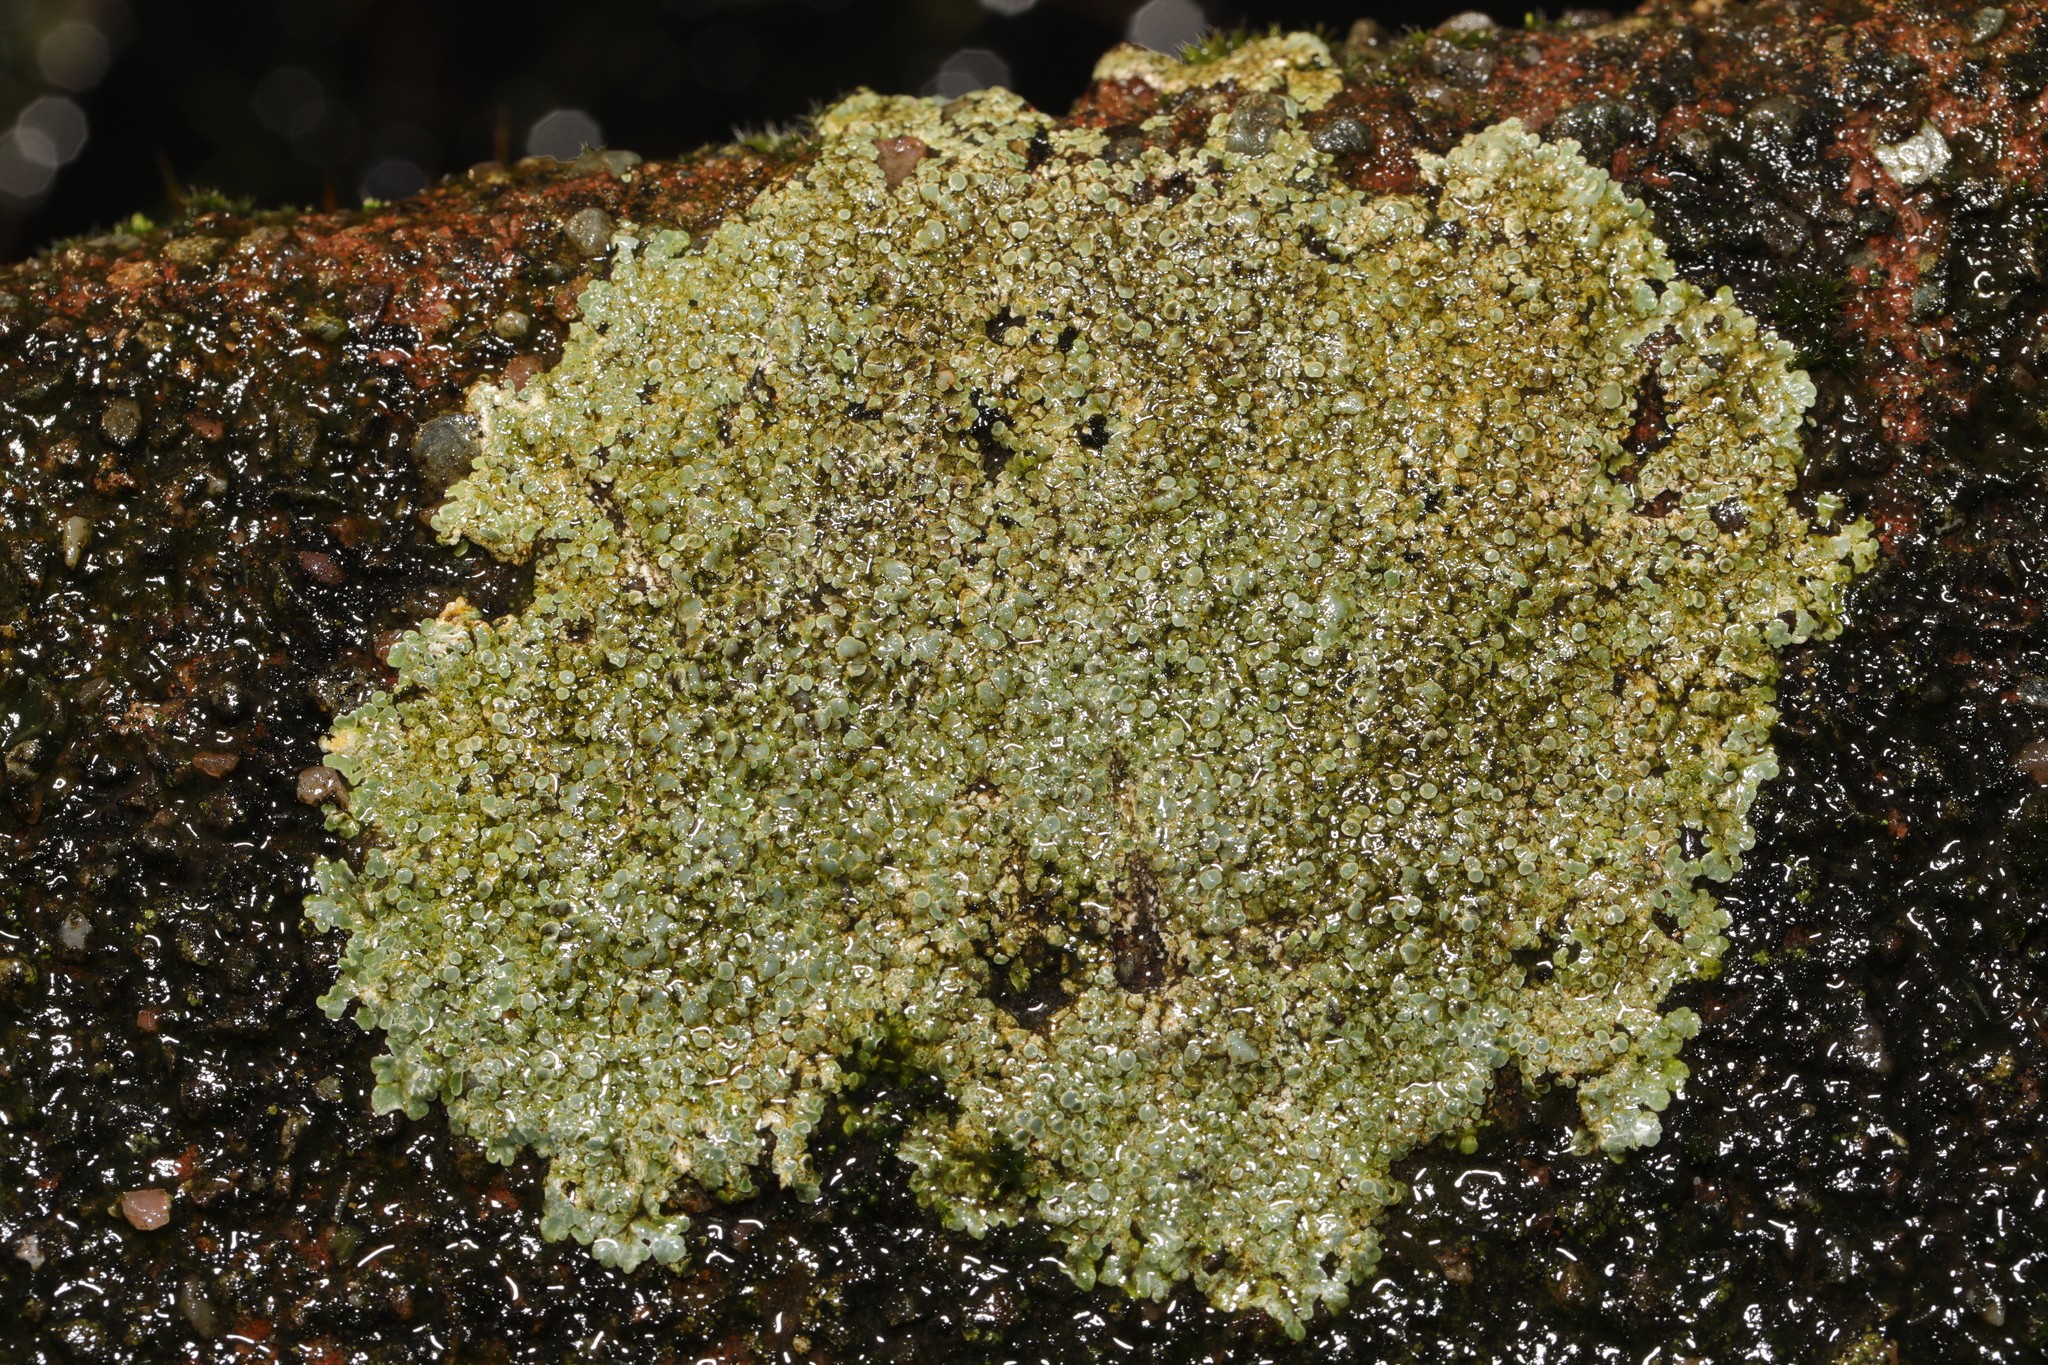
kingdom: Fungi
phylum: Ascomycota
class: Lecanoromycetes
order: Lecanorales
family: Lecanoraceae
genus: Protoparmeliopsis
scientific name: Protoparmeliopsis muralis
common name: Stonewall rim lichen
